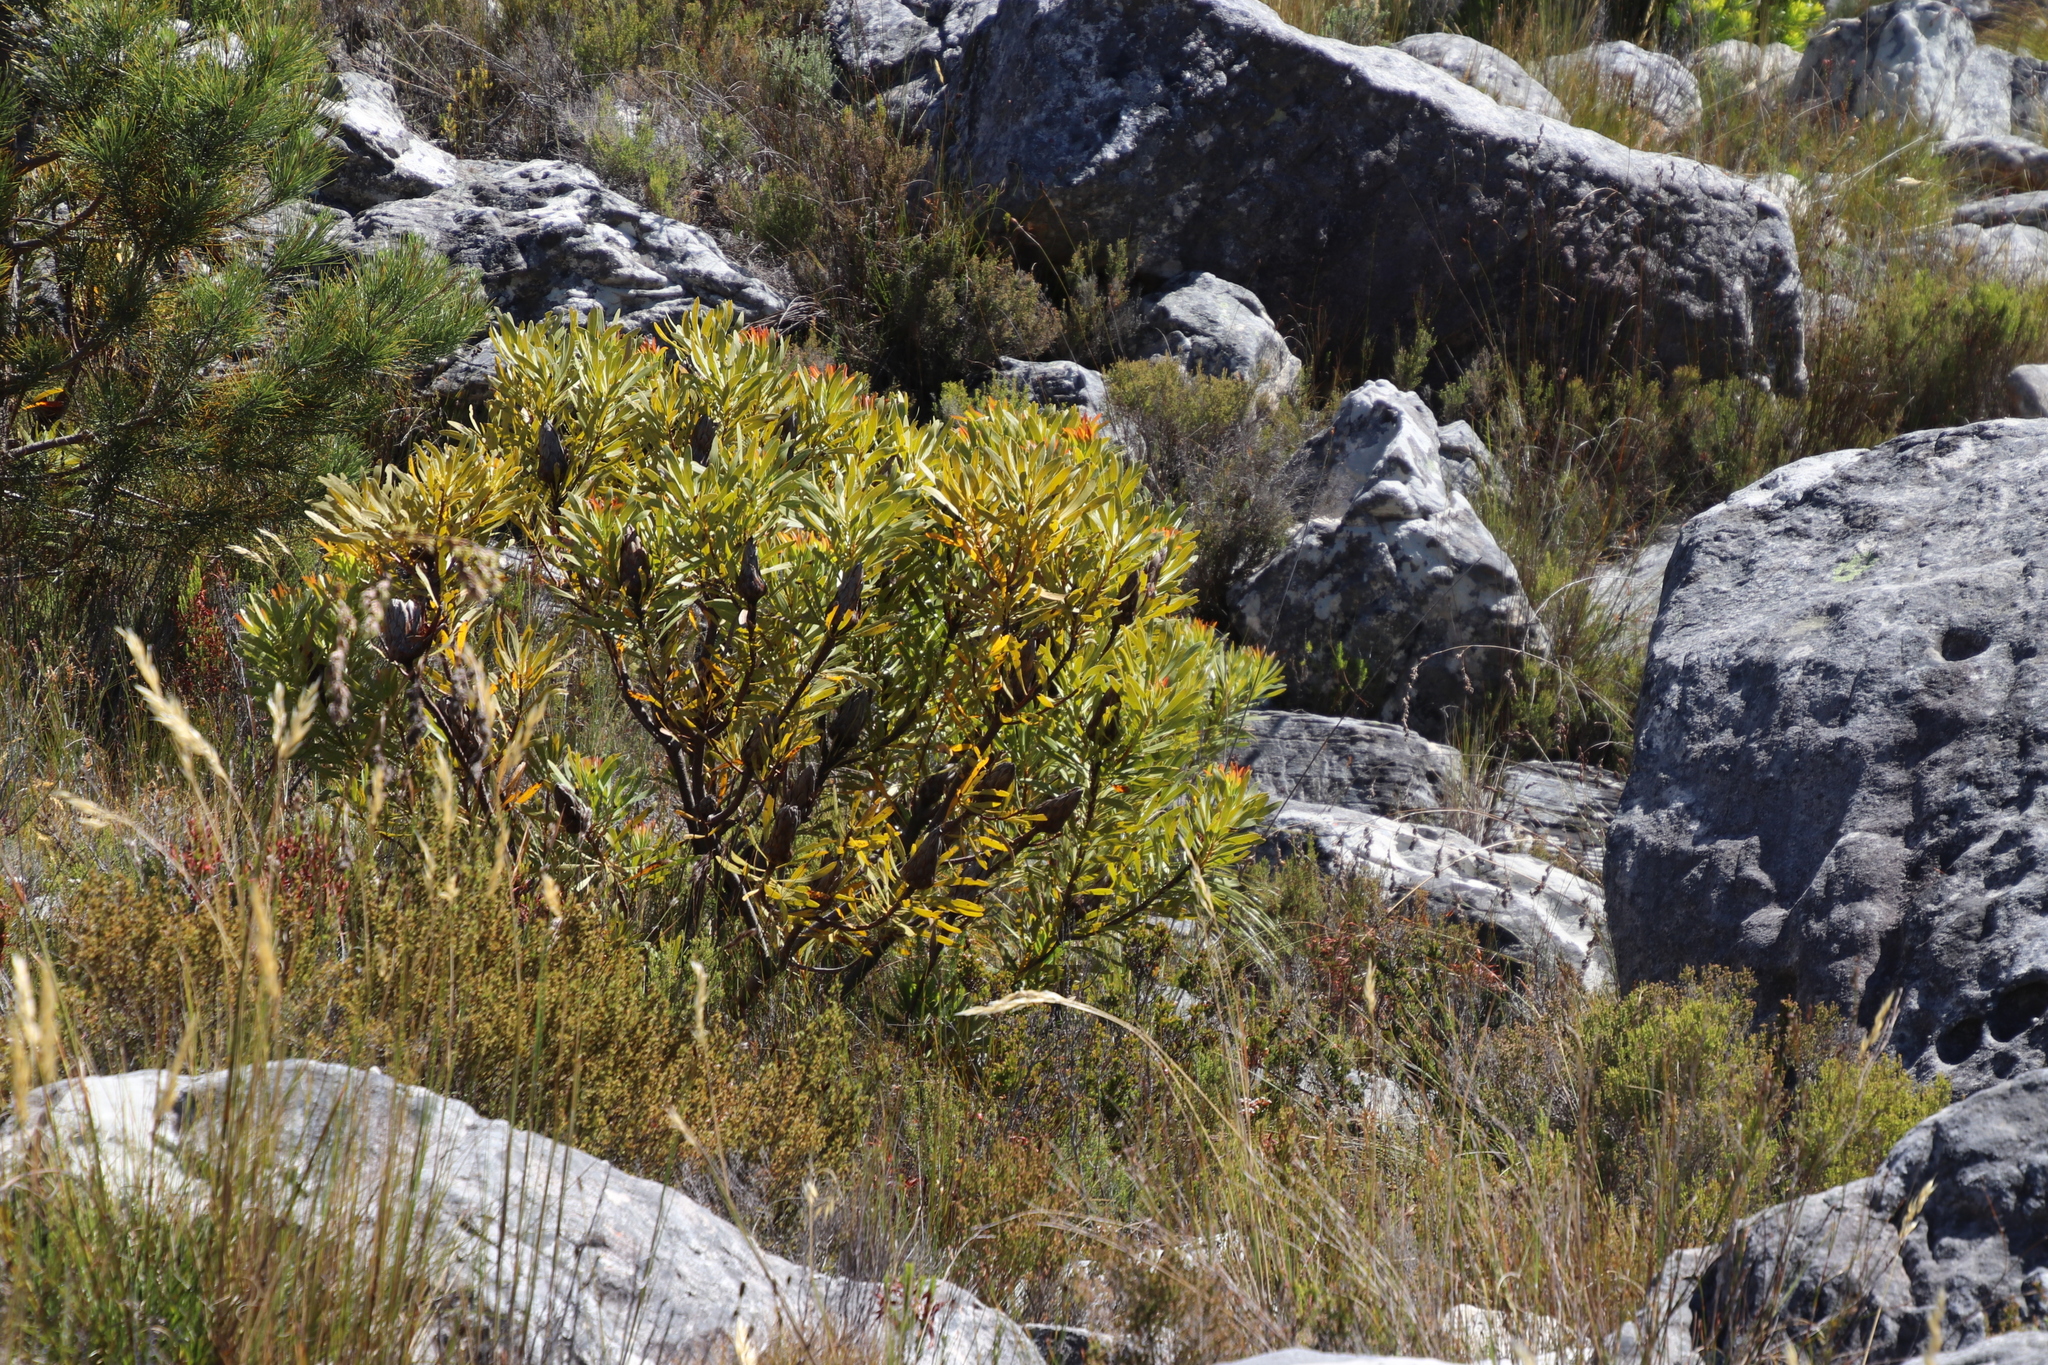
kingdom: Plantae
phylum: Tracheophyta
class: Magnoliopsida
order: Proteales
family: Proteaceae
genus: Protea
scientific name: Protea repens
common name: Sugarbush
